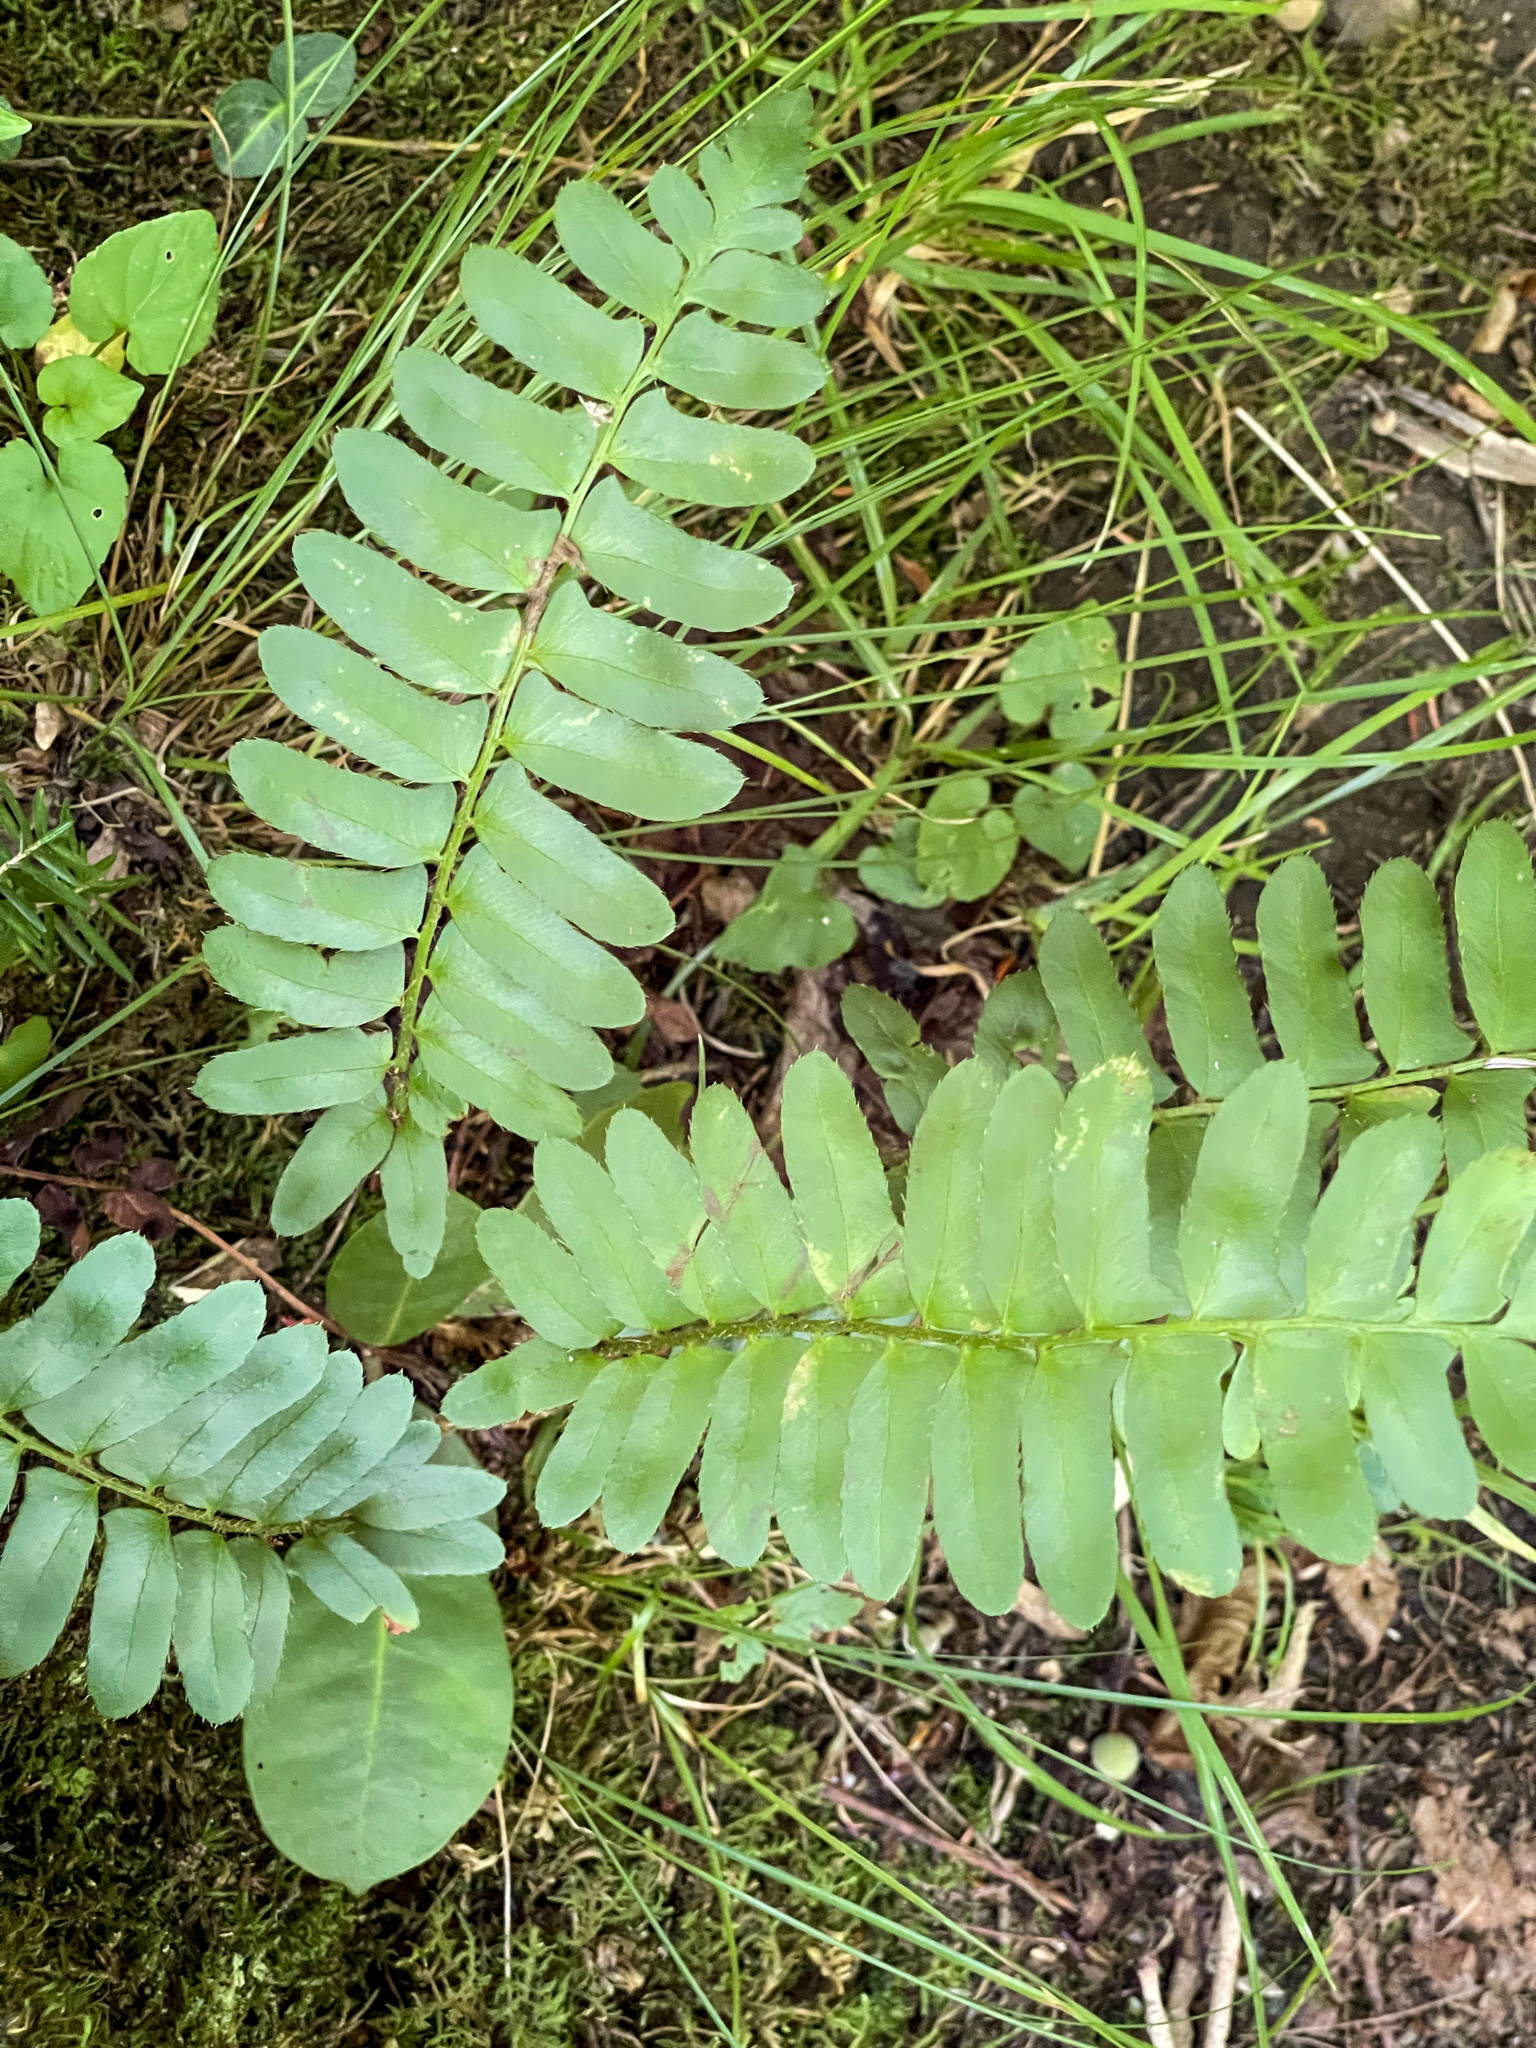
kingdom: Plantae
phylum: Tracheophyta
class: Polypodiopsida
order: Polypodiales
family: Dryopteridaceae
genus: Polystichum
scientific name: Polystichum acrostichoides
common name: Christmas fern
